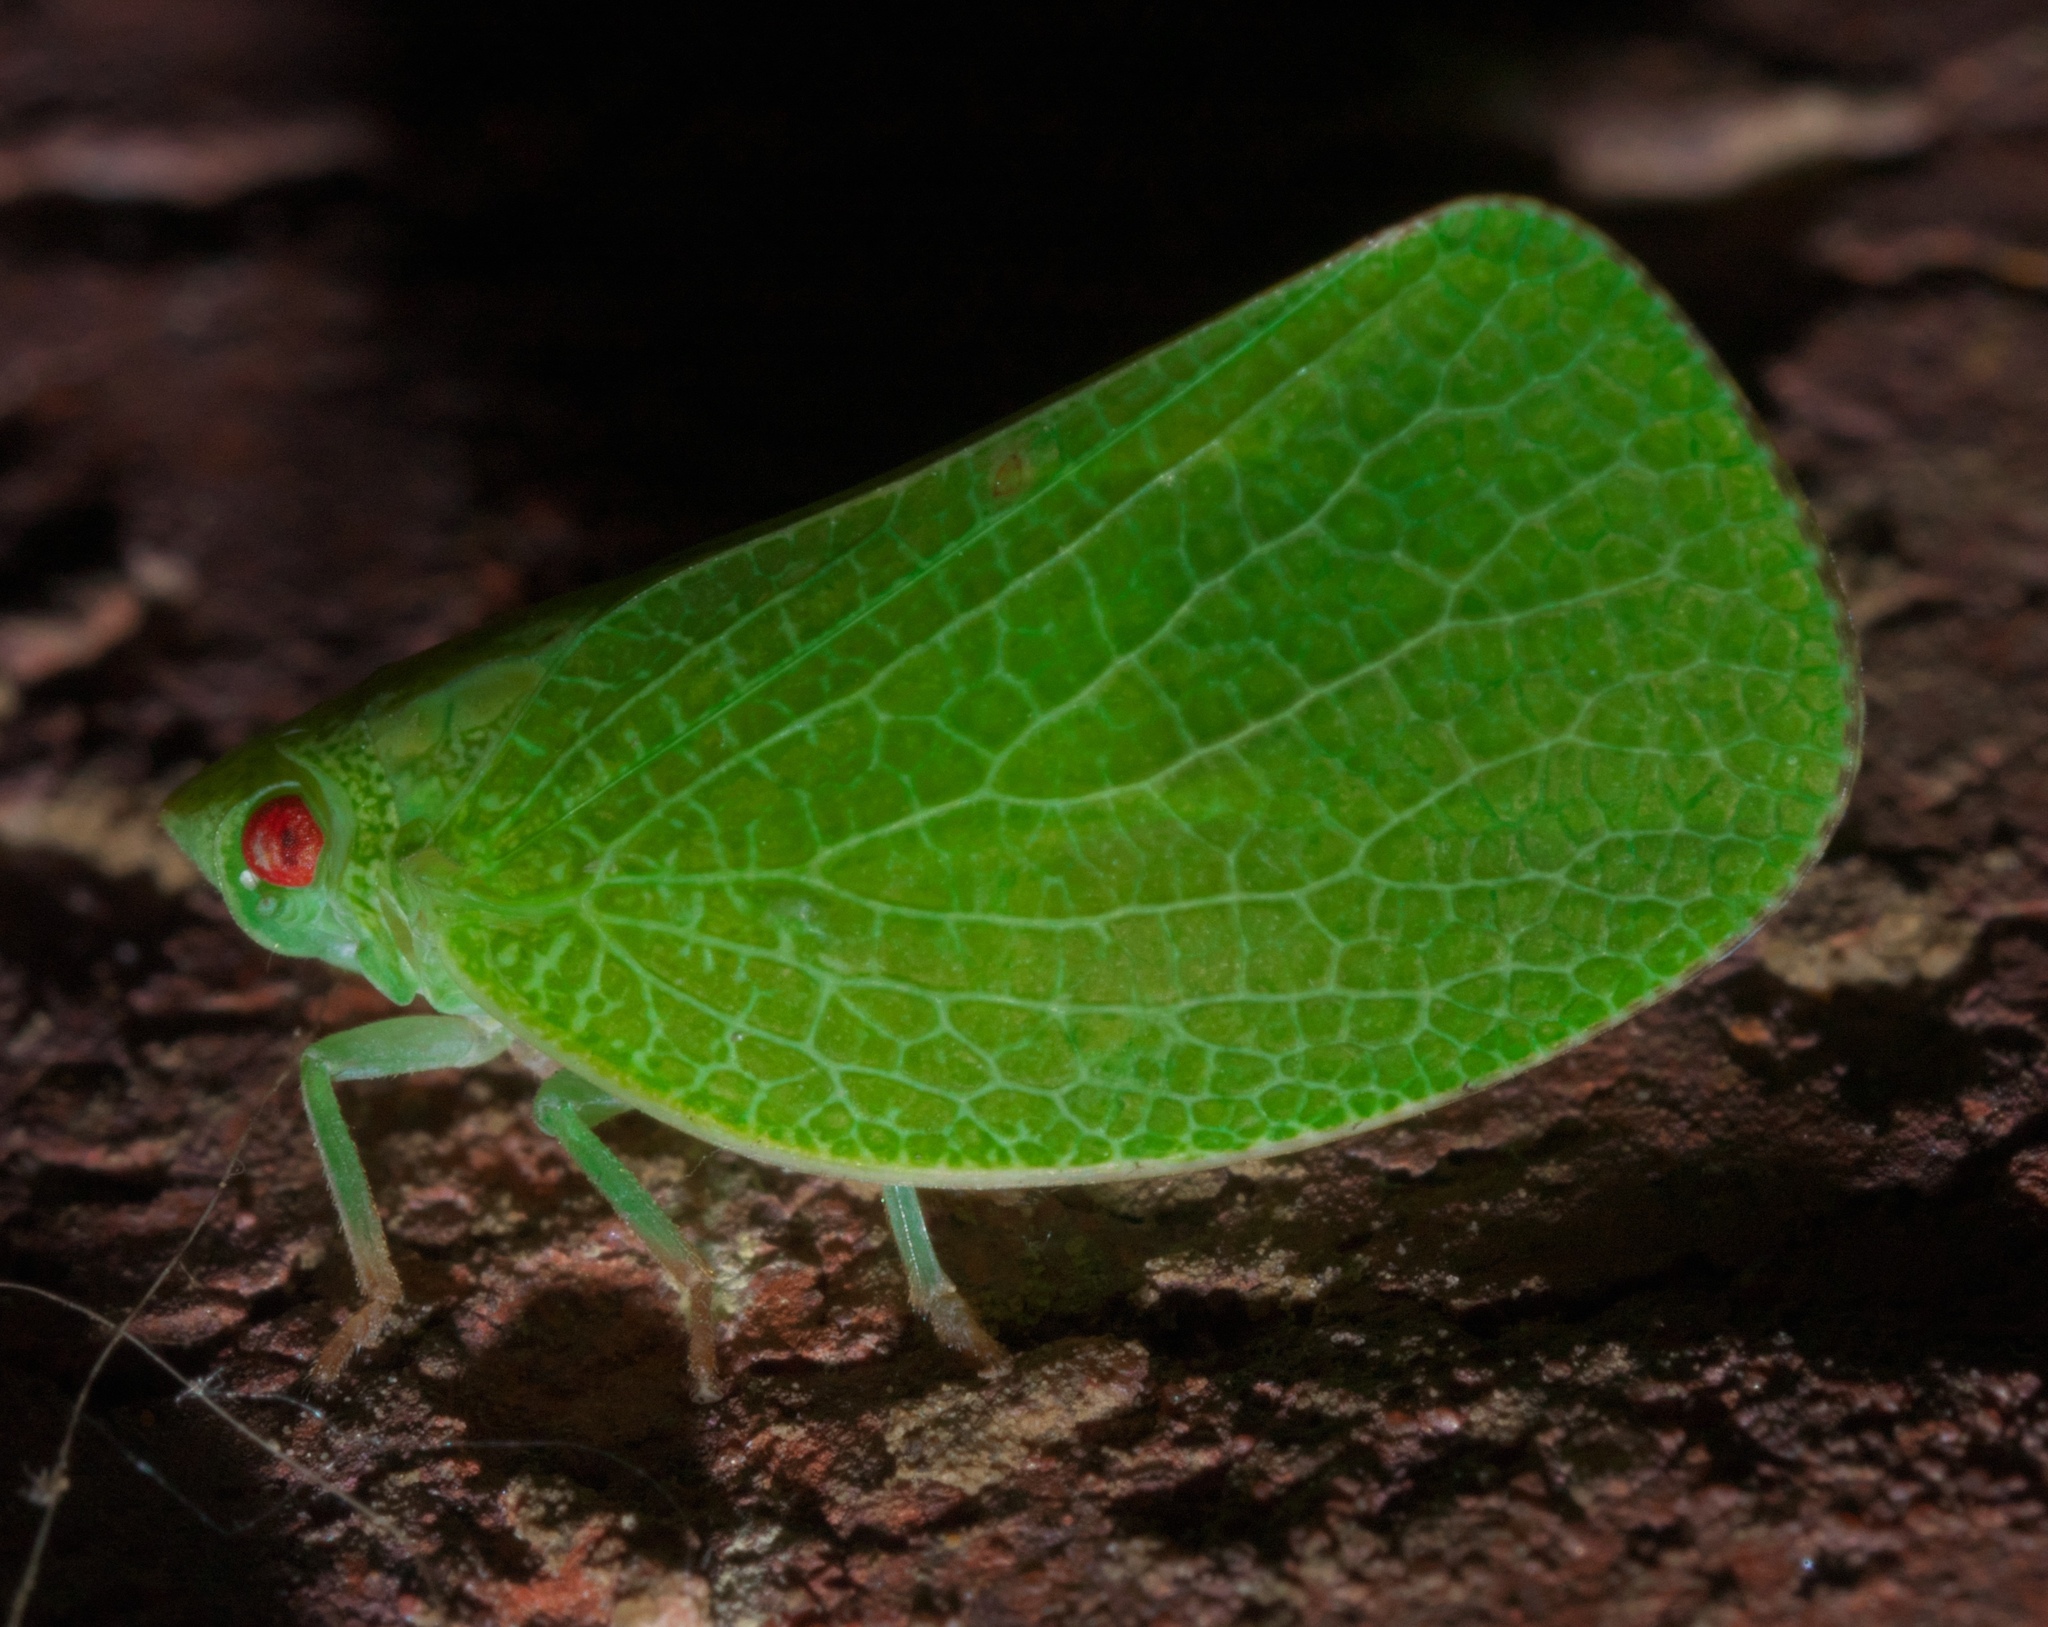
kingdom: Animalia
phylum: Arthropoda
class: Insecta
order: Hemiptera
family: Acanaloniidae
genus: Acanalonia
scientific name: Acanalonia conica
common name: Green cone-headed planthopper
